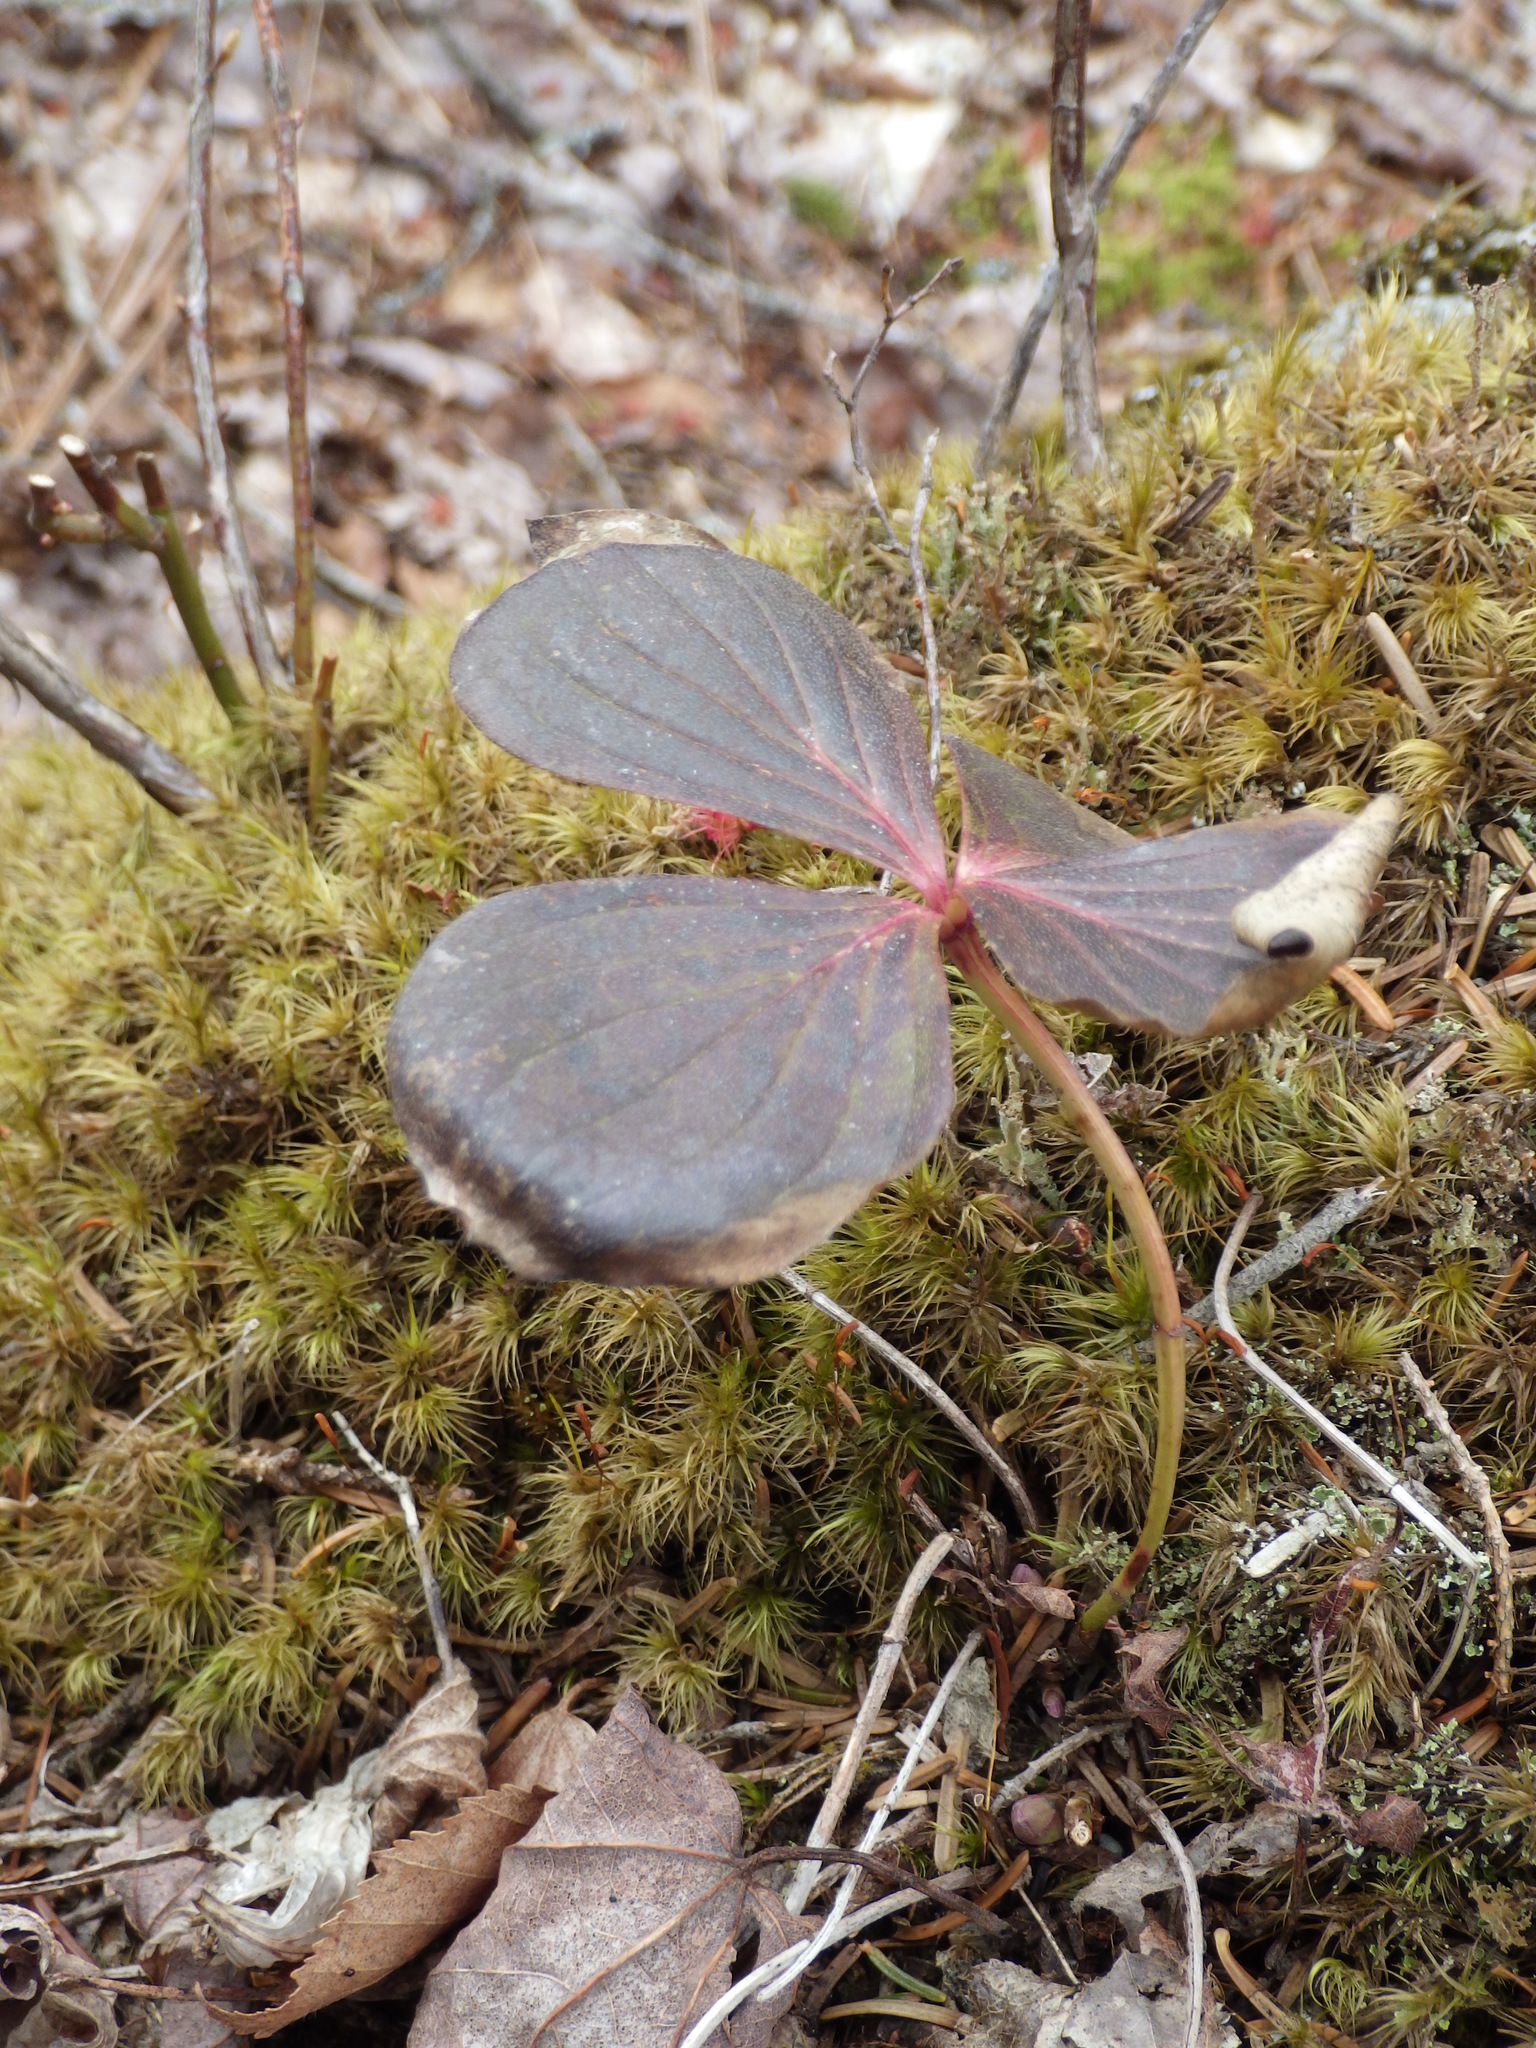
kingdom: Plantae
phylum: Tracheophyta
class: Magnoliopsida
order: Cornales
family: Cornaceae
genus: Cornus
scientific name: Cornus canadensis
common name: Creeping dogwood
